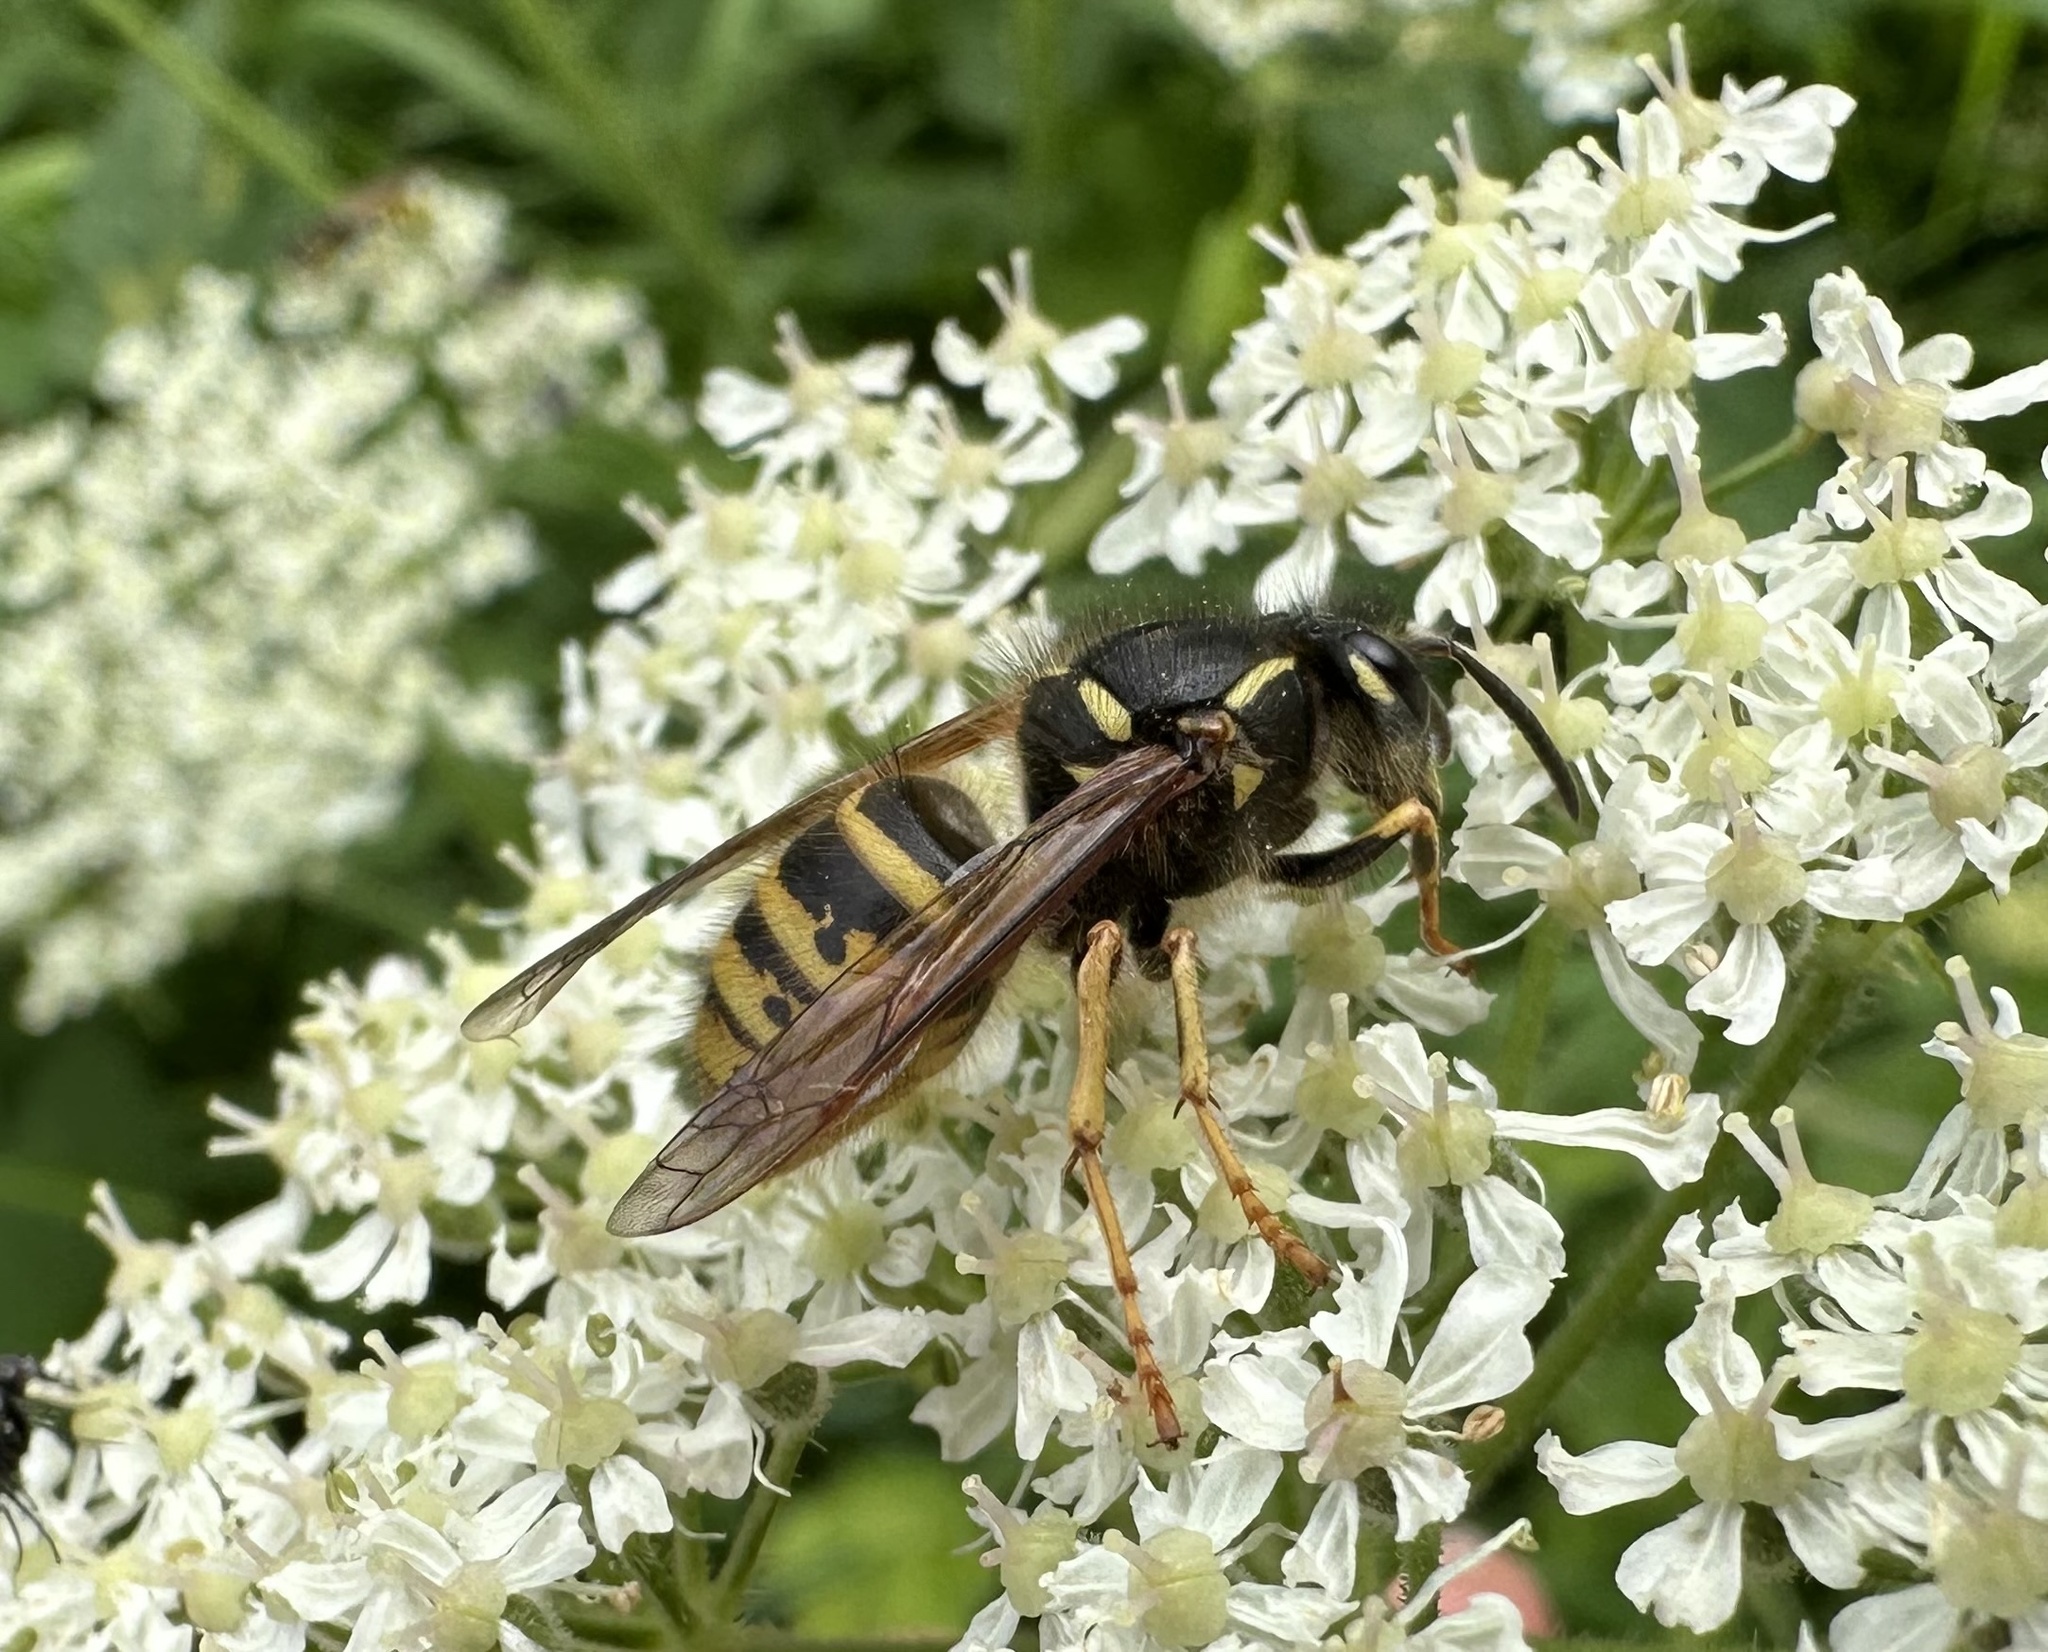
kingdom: Animalia
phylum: Arthropoda
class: Insecta
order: Hymenoptera
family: Vespidae
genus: Dolichovespula
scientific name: Dolichovespula saxonica
